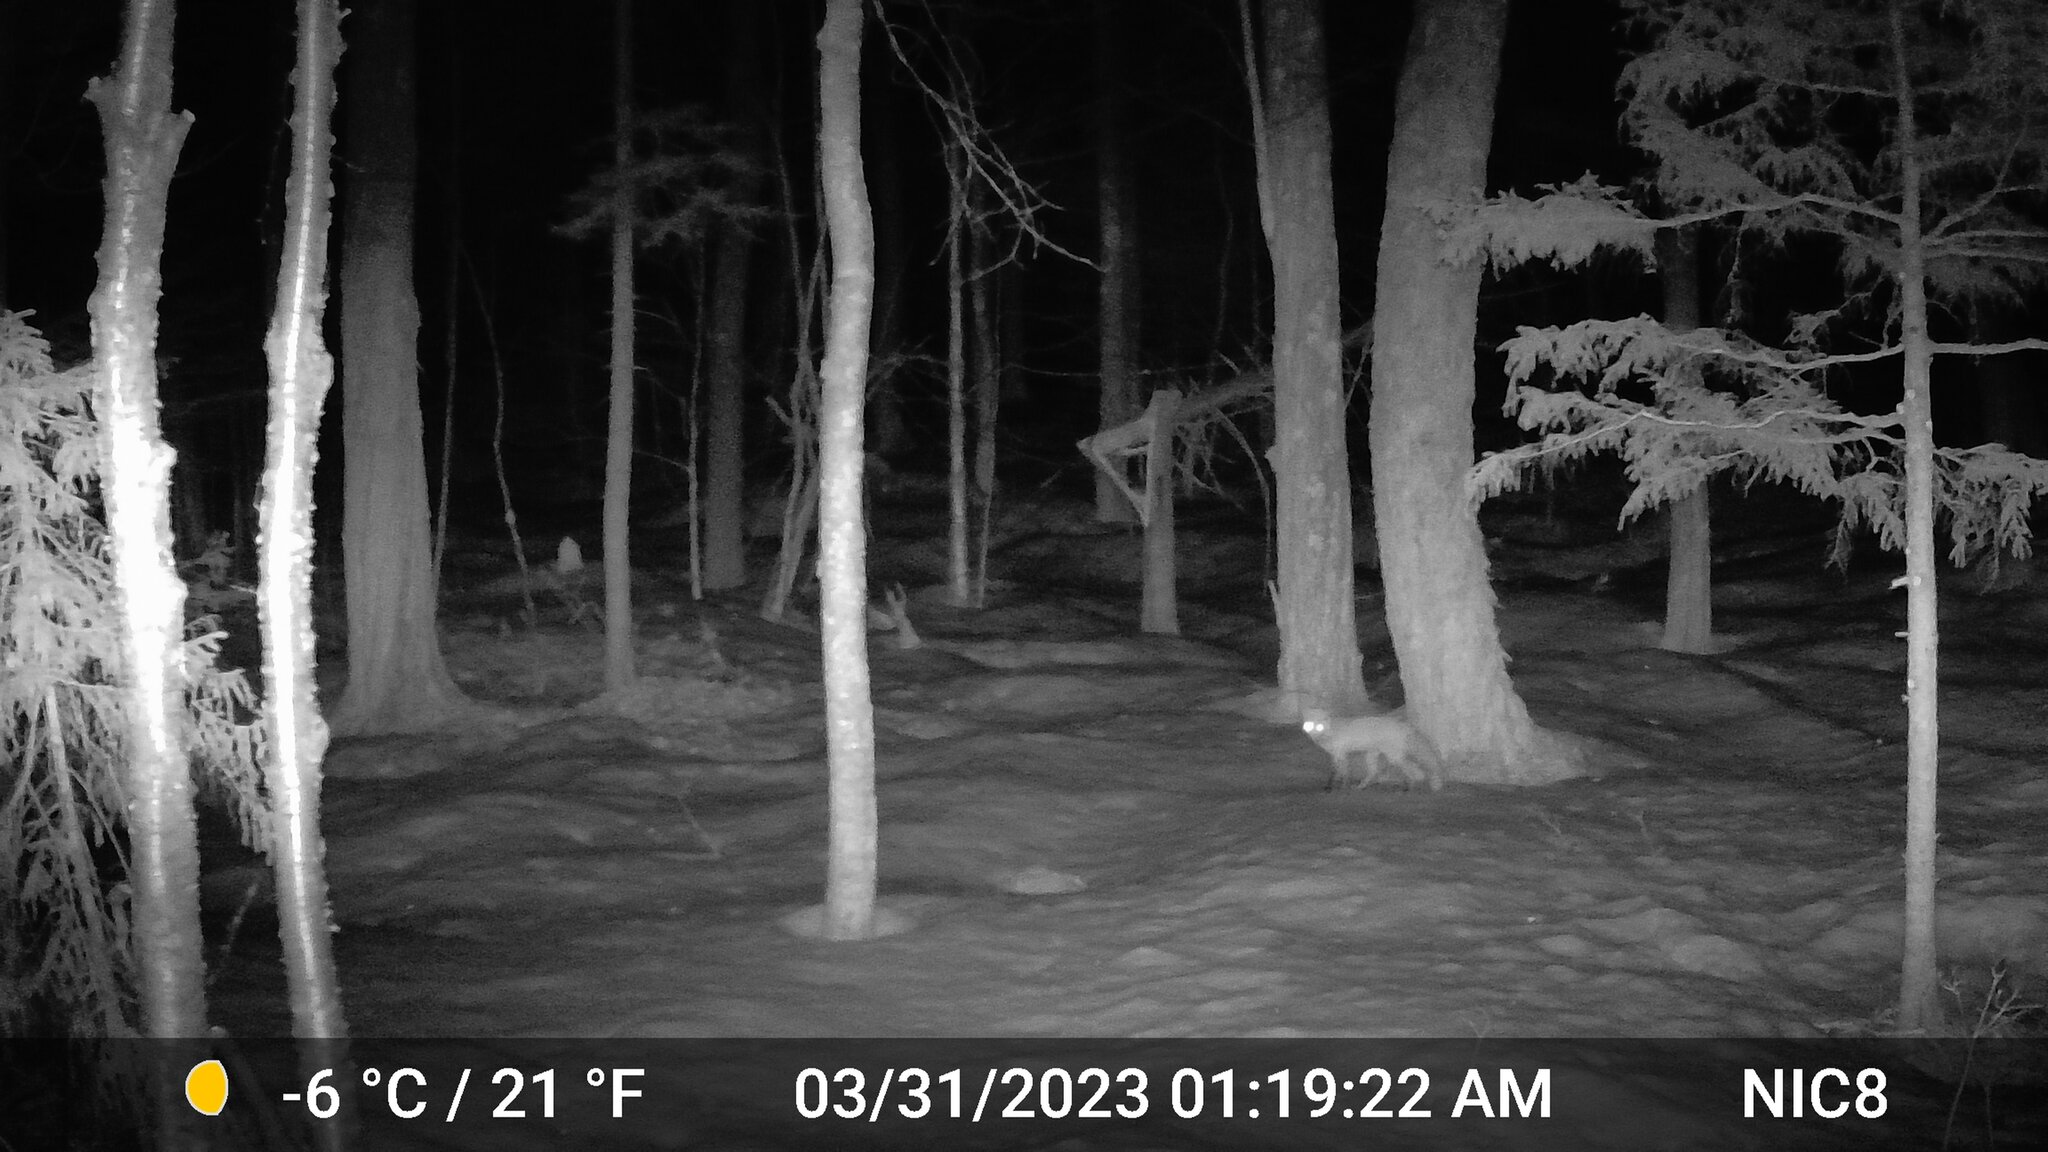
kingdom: Animalia
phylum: Chordata
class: Mammalia
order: Carnivora
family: Canidae
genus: Vulpes
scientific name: Vulpes vulpes
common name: Red fox
